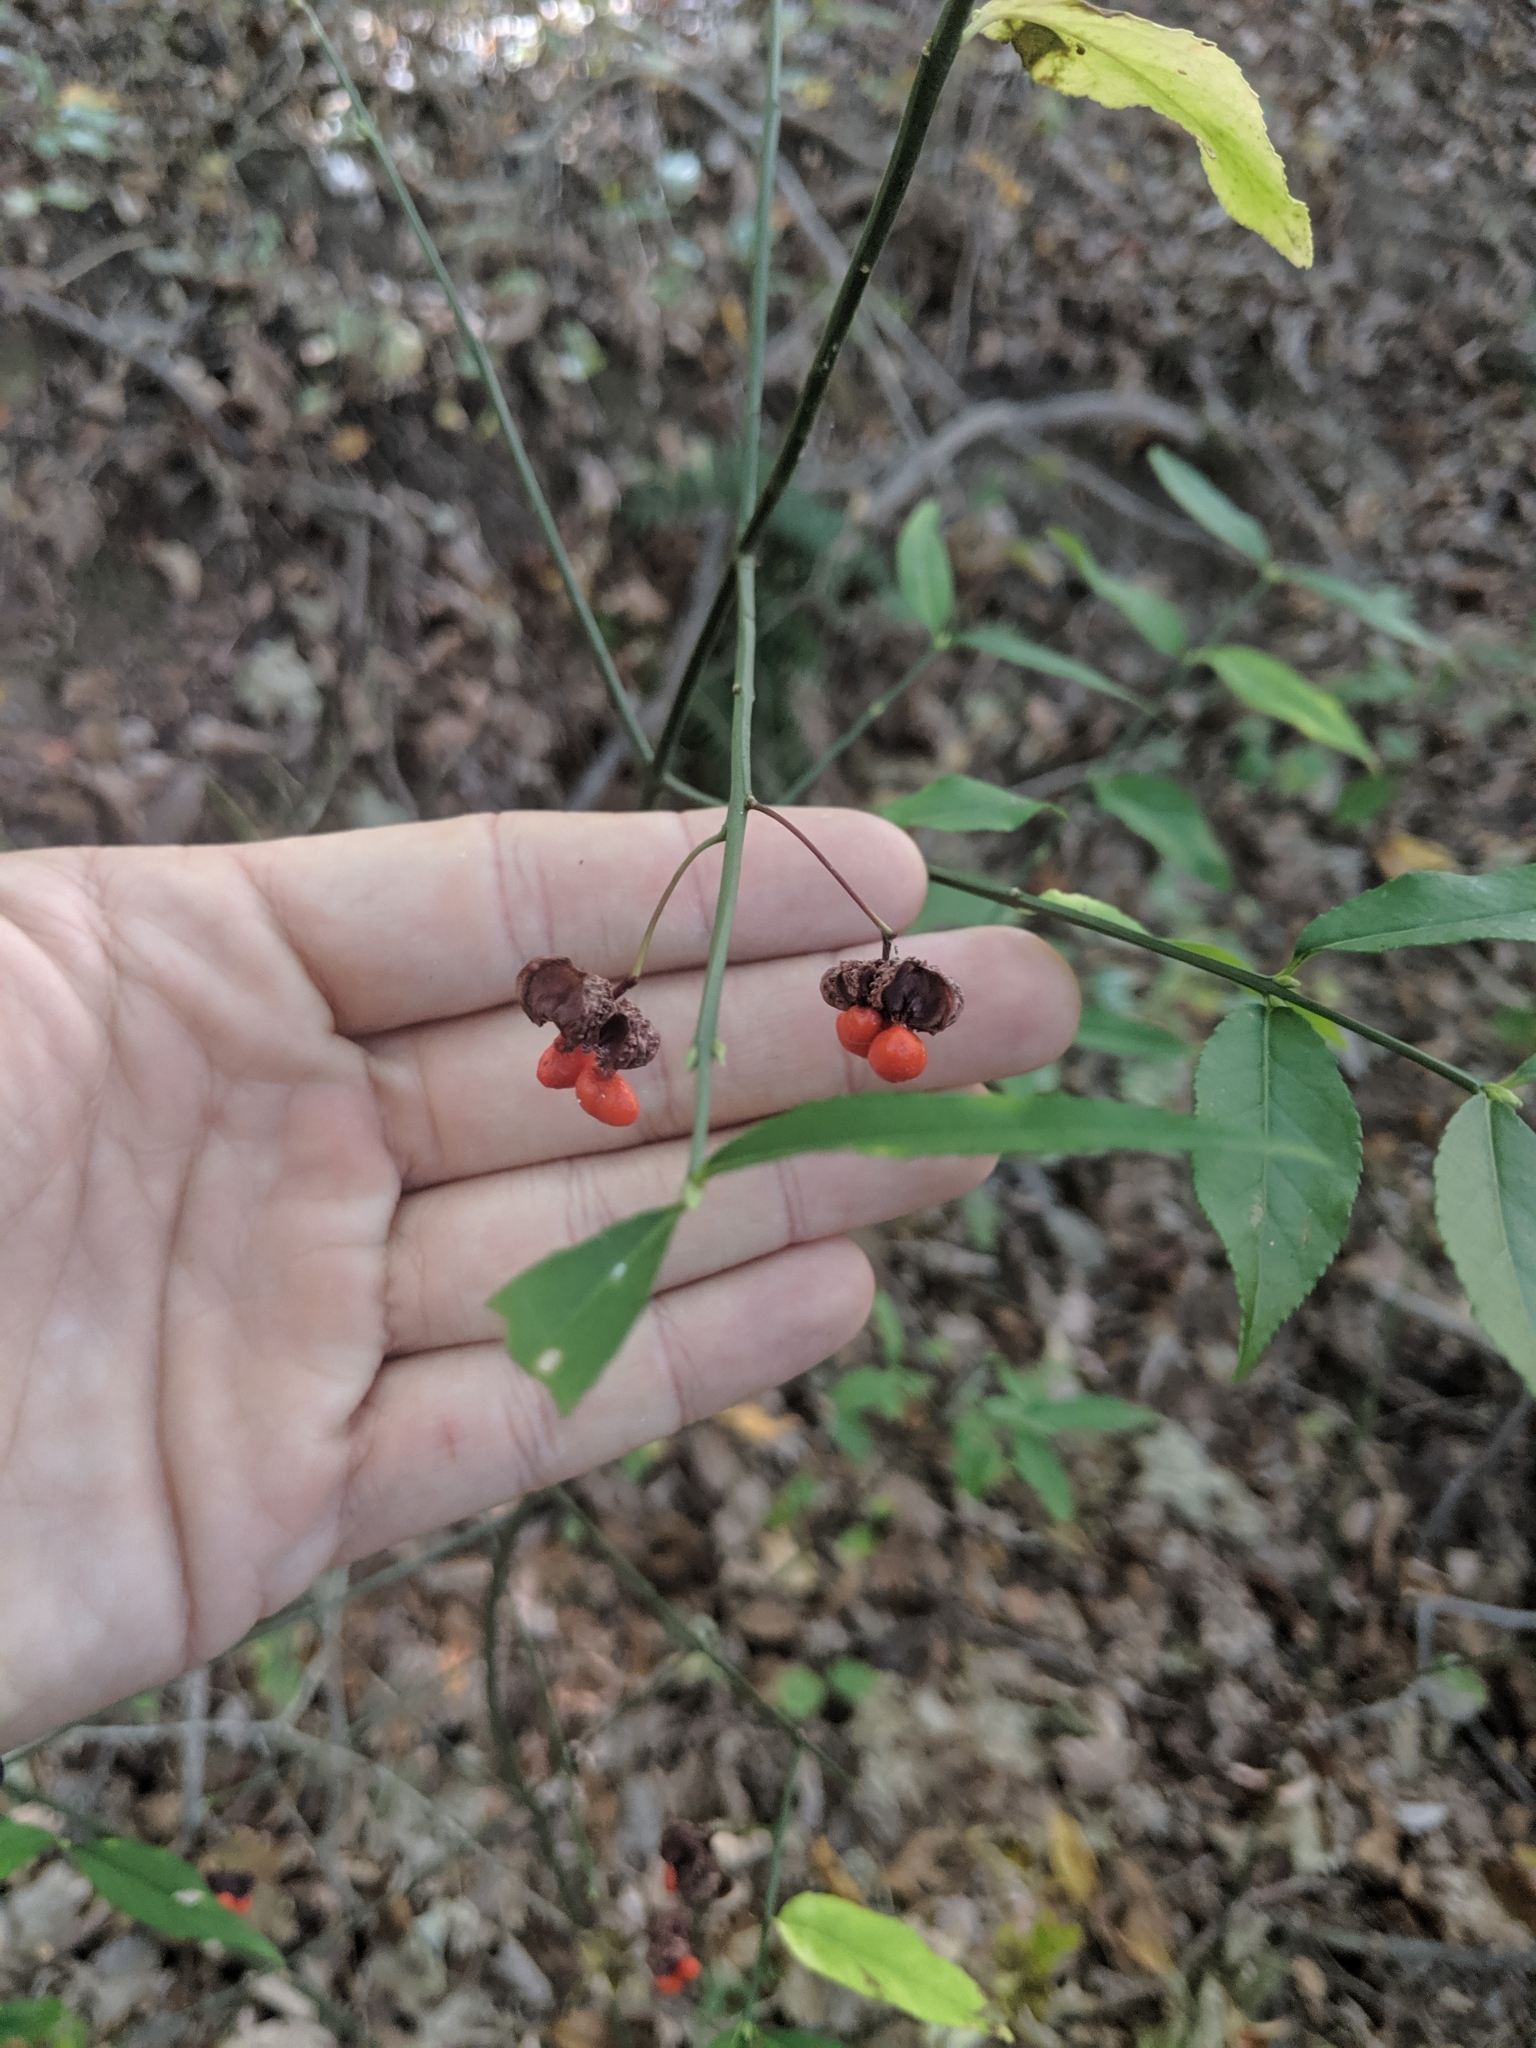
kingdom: Plantae
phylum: Tracheophyta
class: Magnoliopsida
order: Celastrales
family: Celastraceae
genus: Euonymus
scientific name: Euonymus americanus
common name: Bursting-heart
